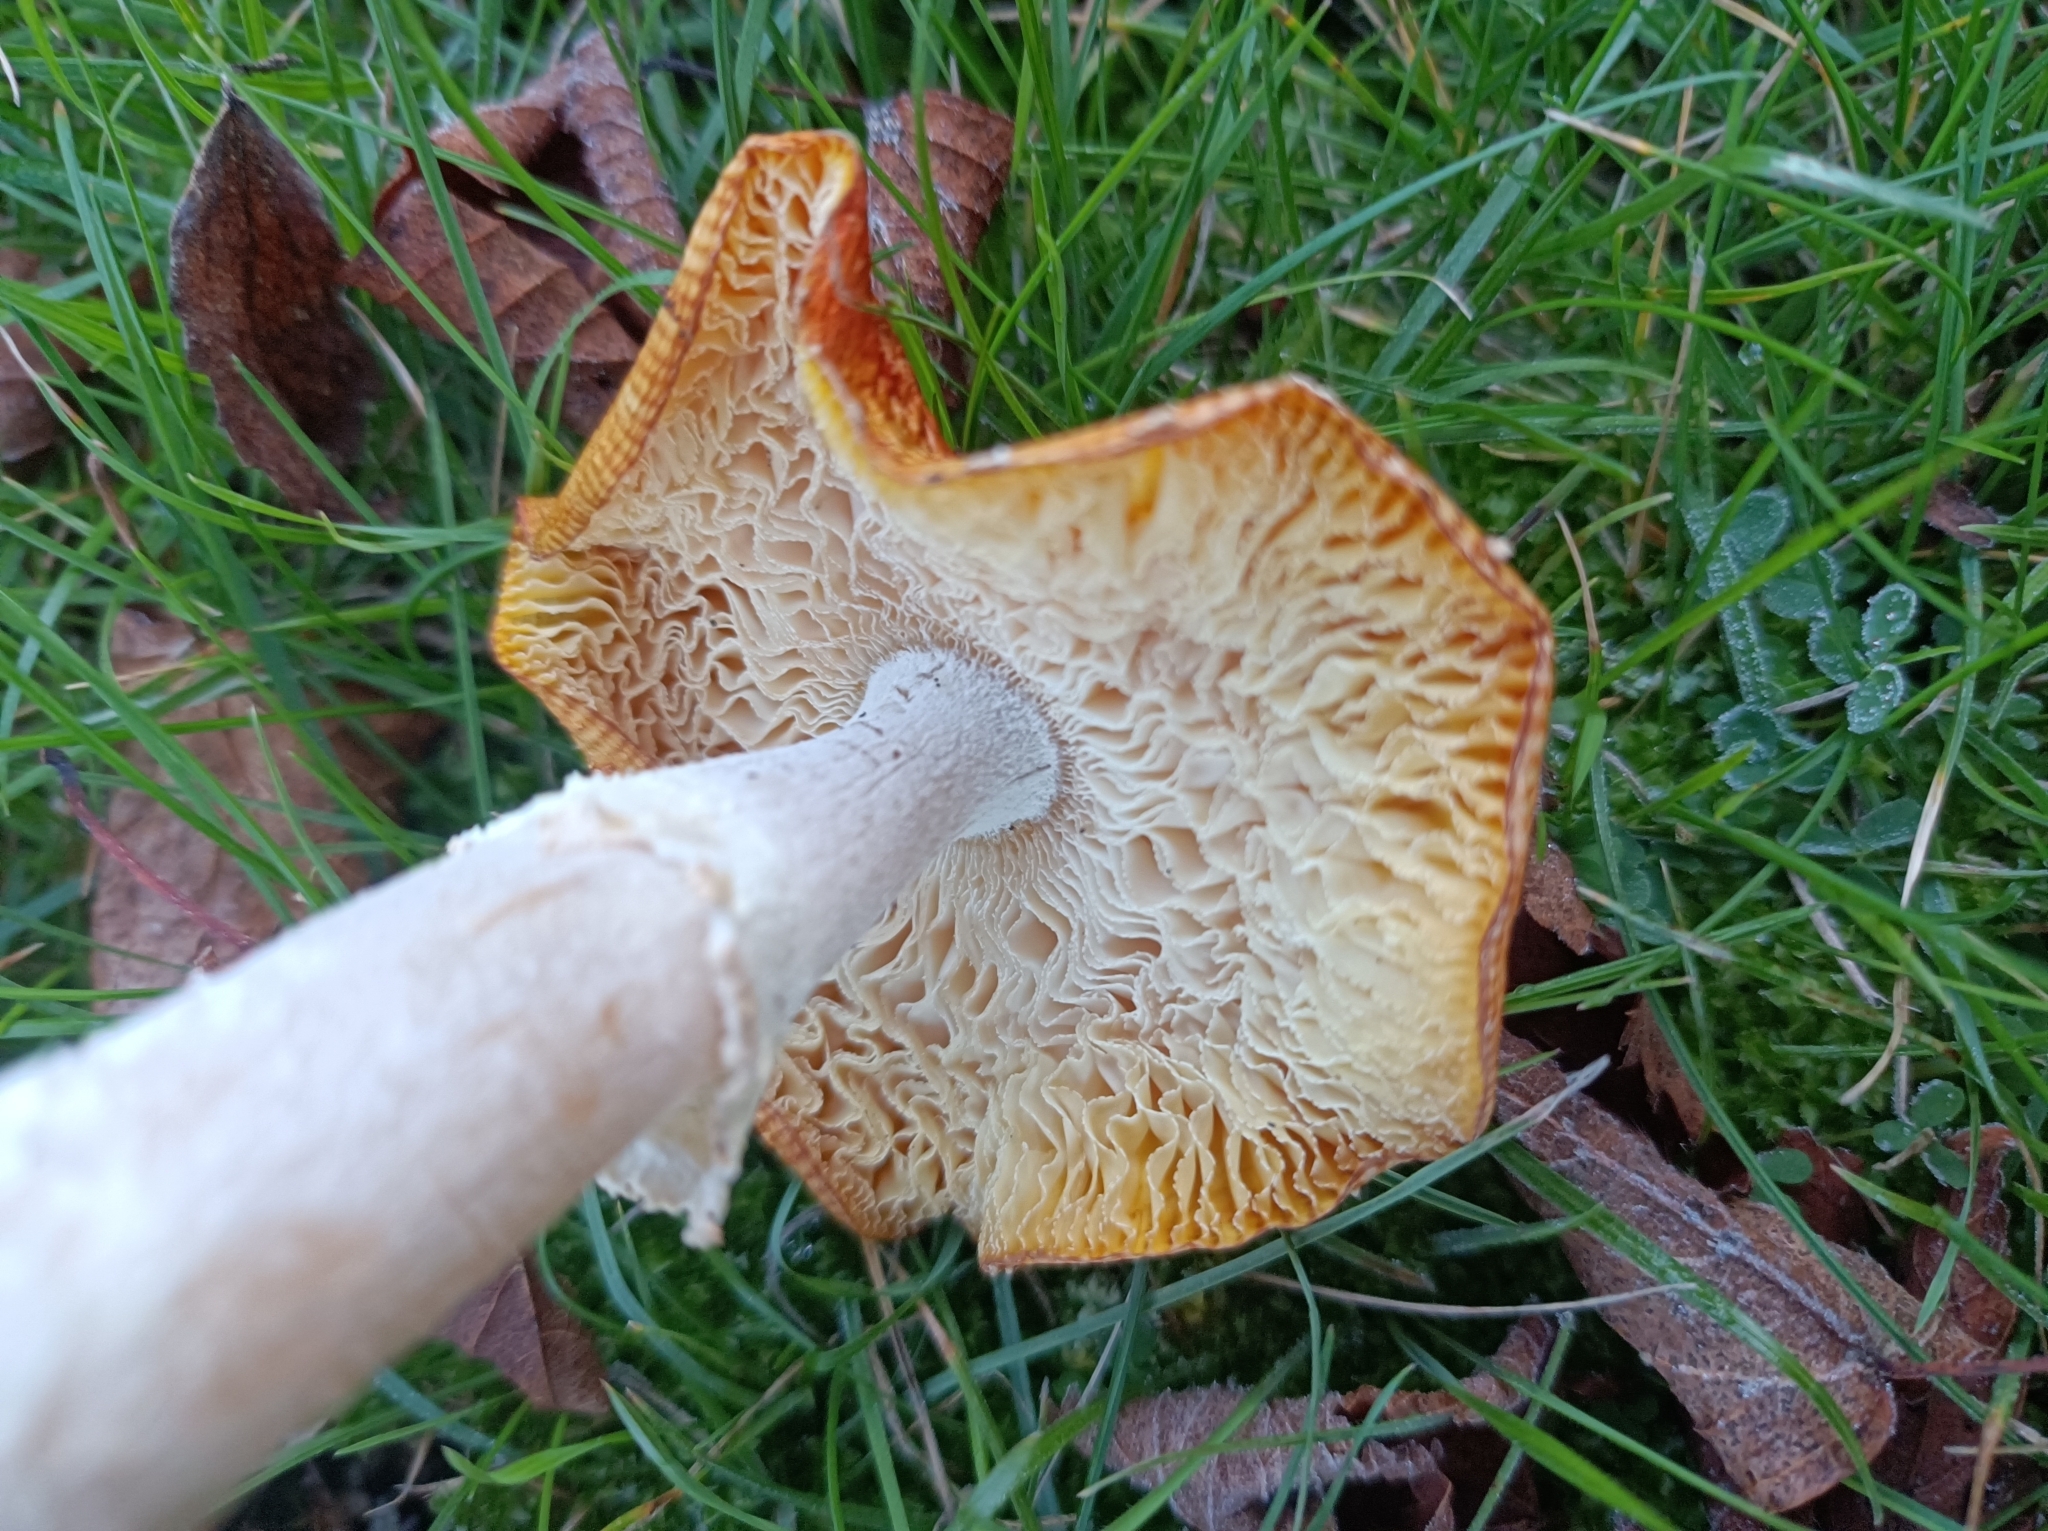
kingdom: Fungi
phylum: Basidiomycota
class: Agaricomycetes
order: Agaricales
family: Amanitaceae
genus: Amanita
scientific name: Amanita muscaria
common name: Fly agaric
